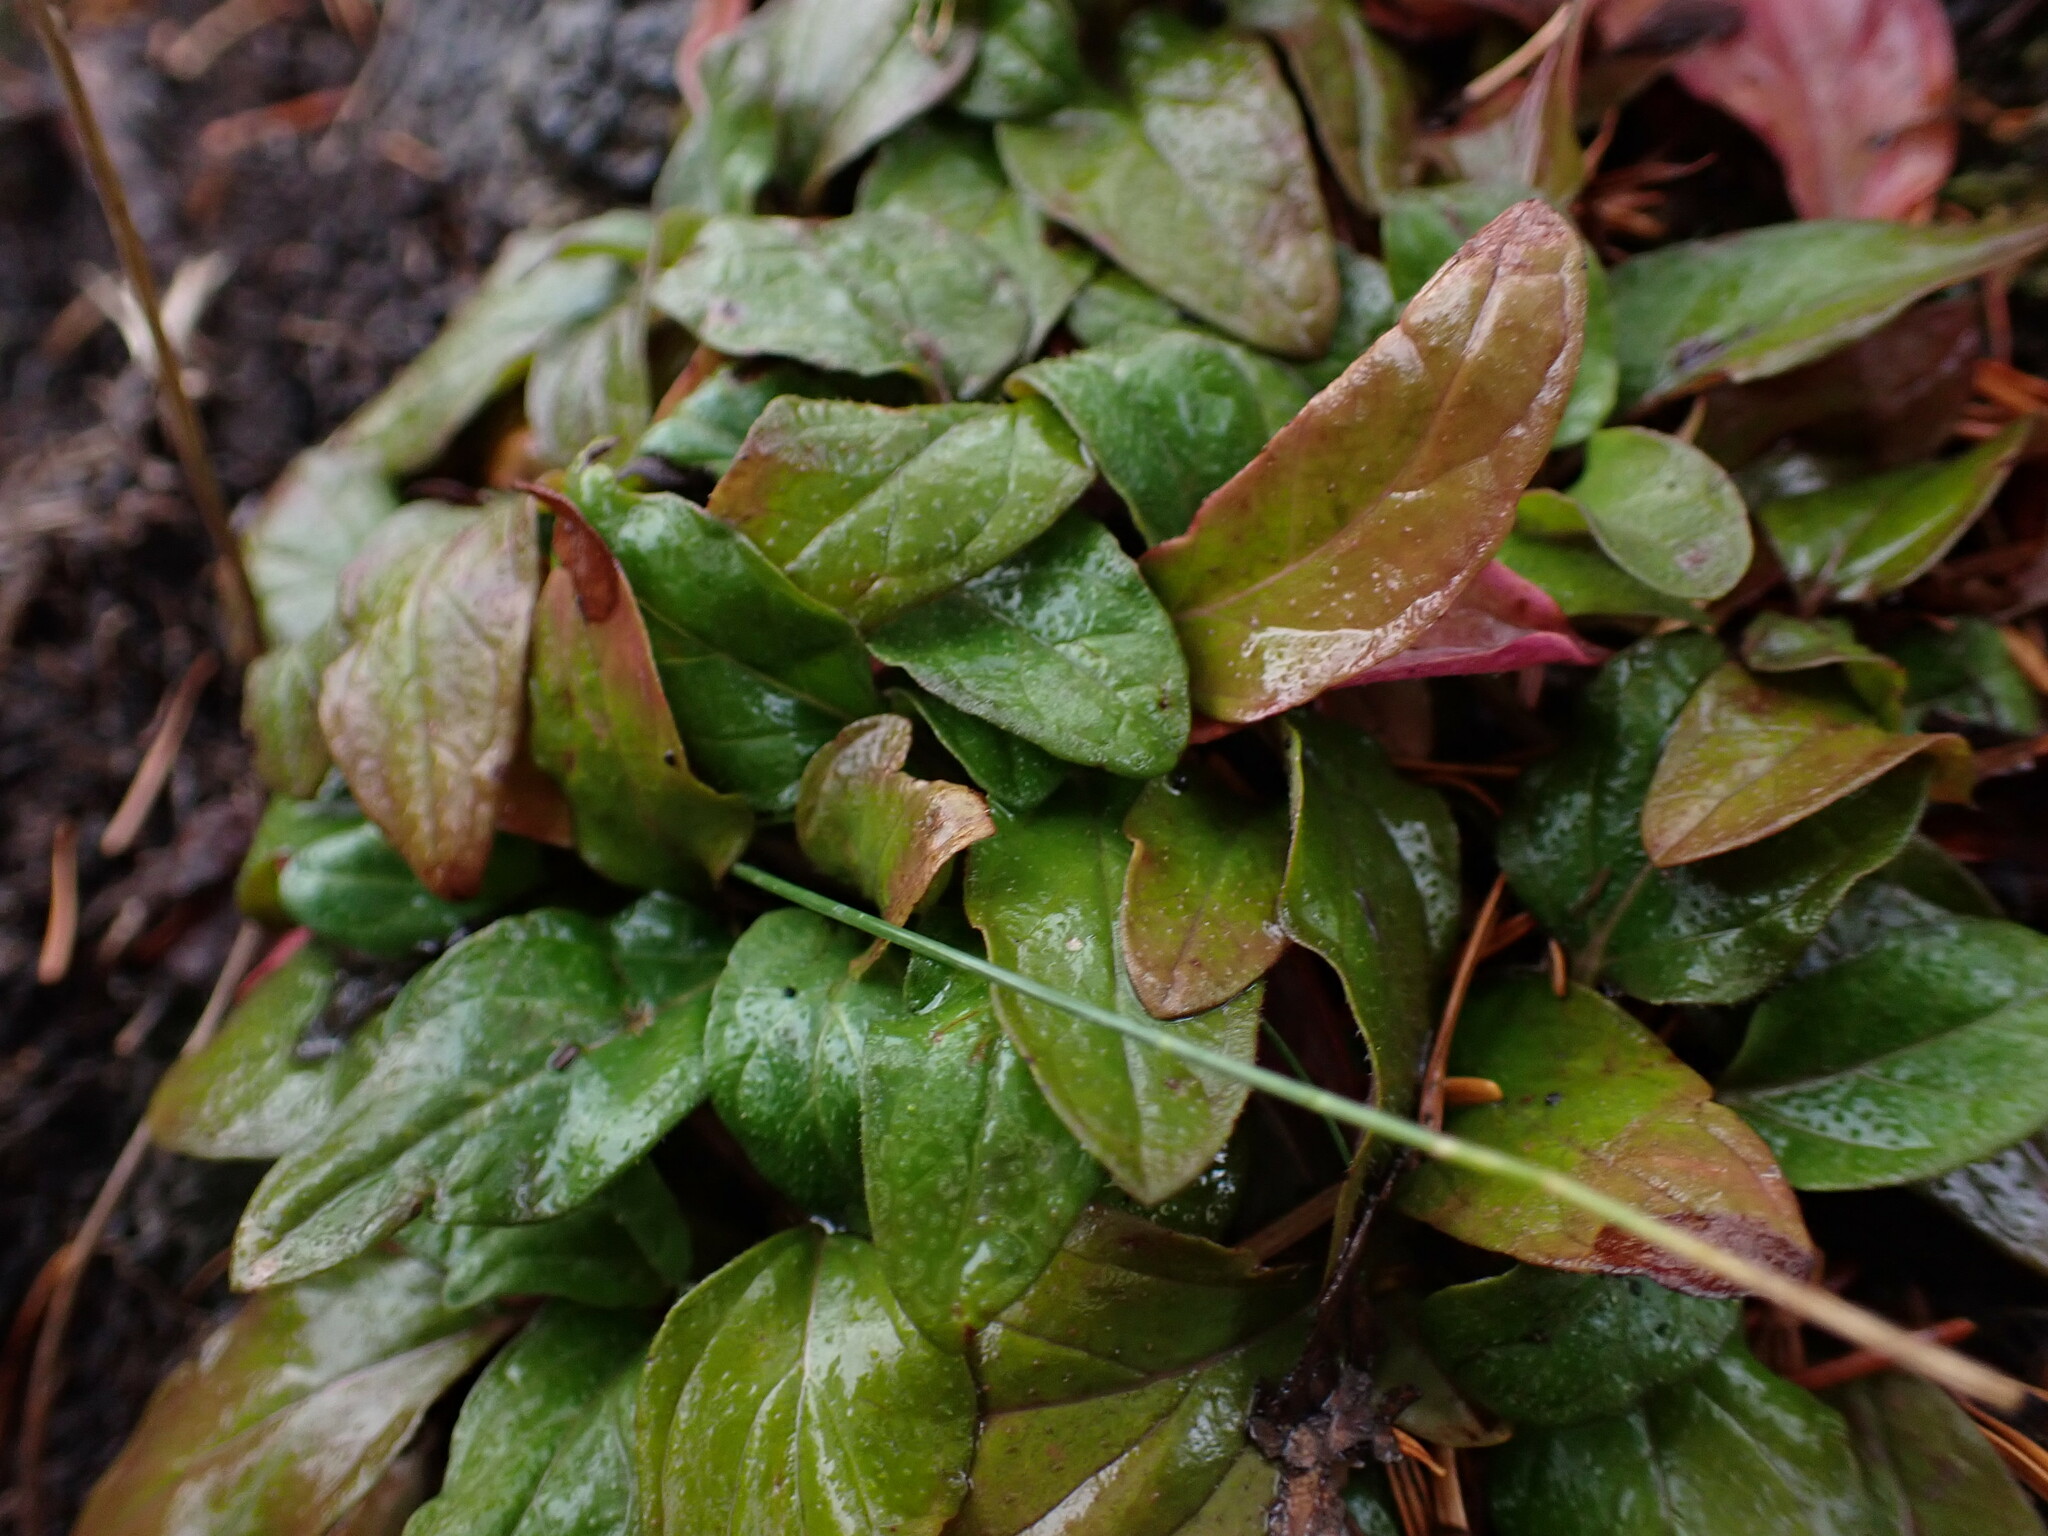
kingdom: Plantae
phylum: Tracheophyta
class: Magnoliopsida
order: Lamiales
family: Lamiaceae
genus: Prunella
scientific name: Prunella vulgaris
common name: Heal-all
